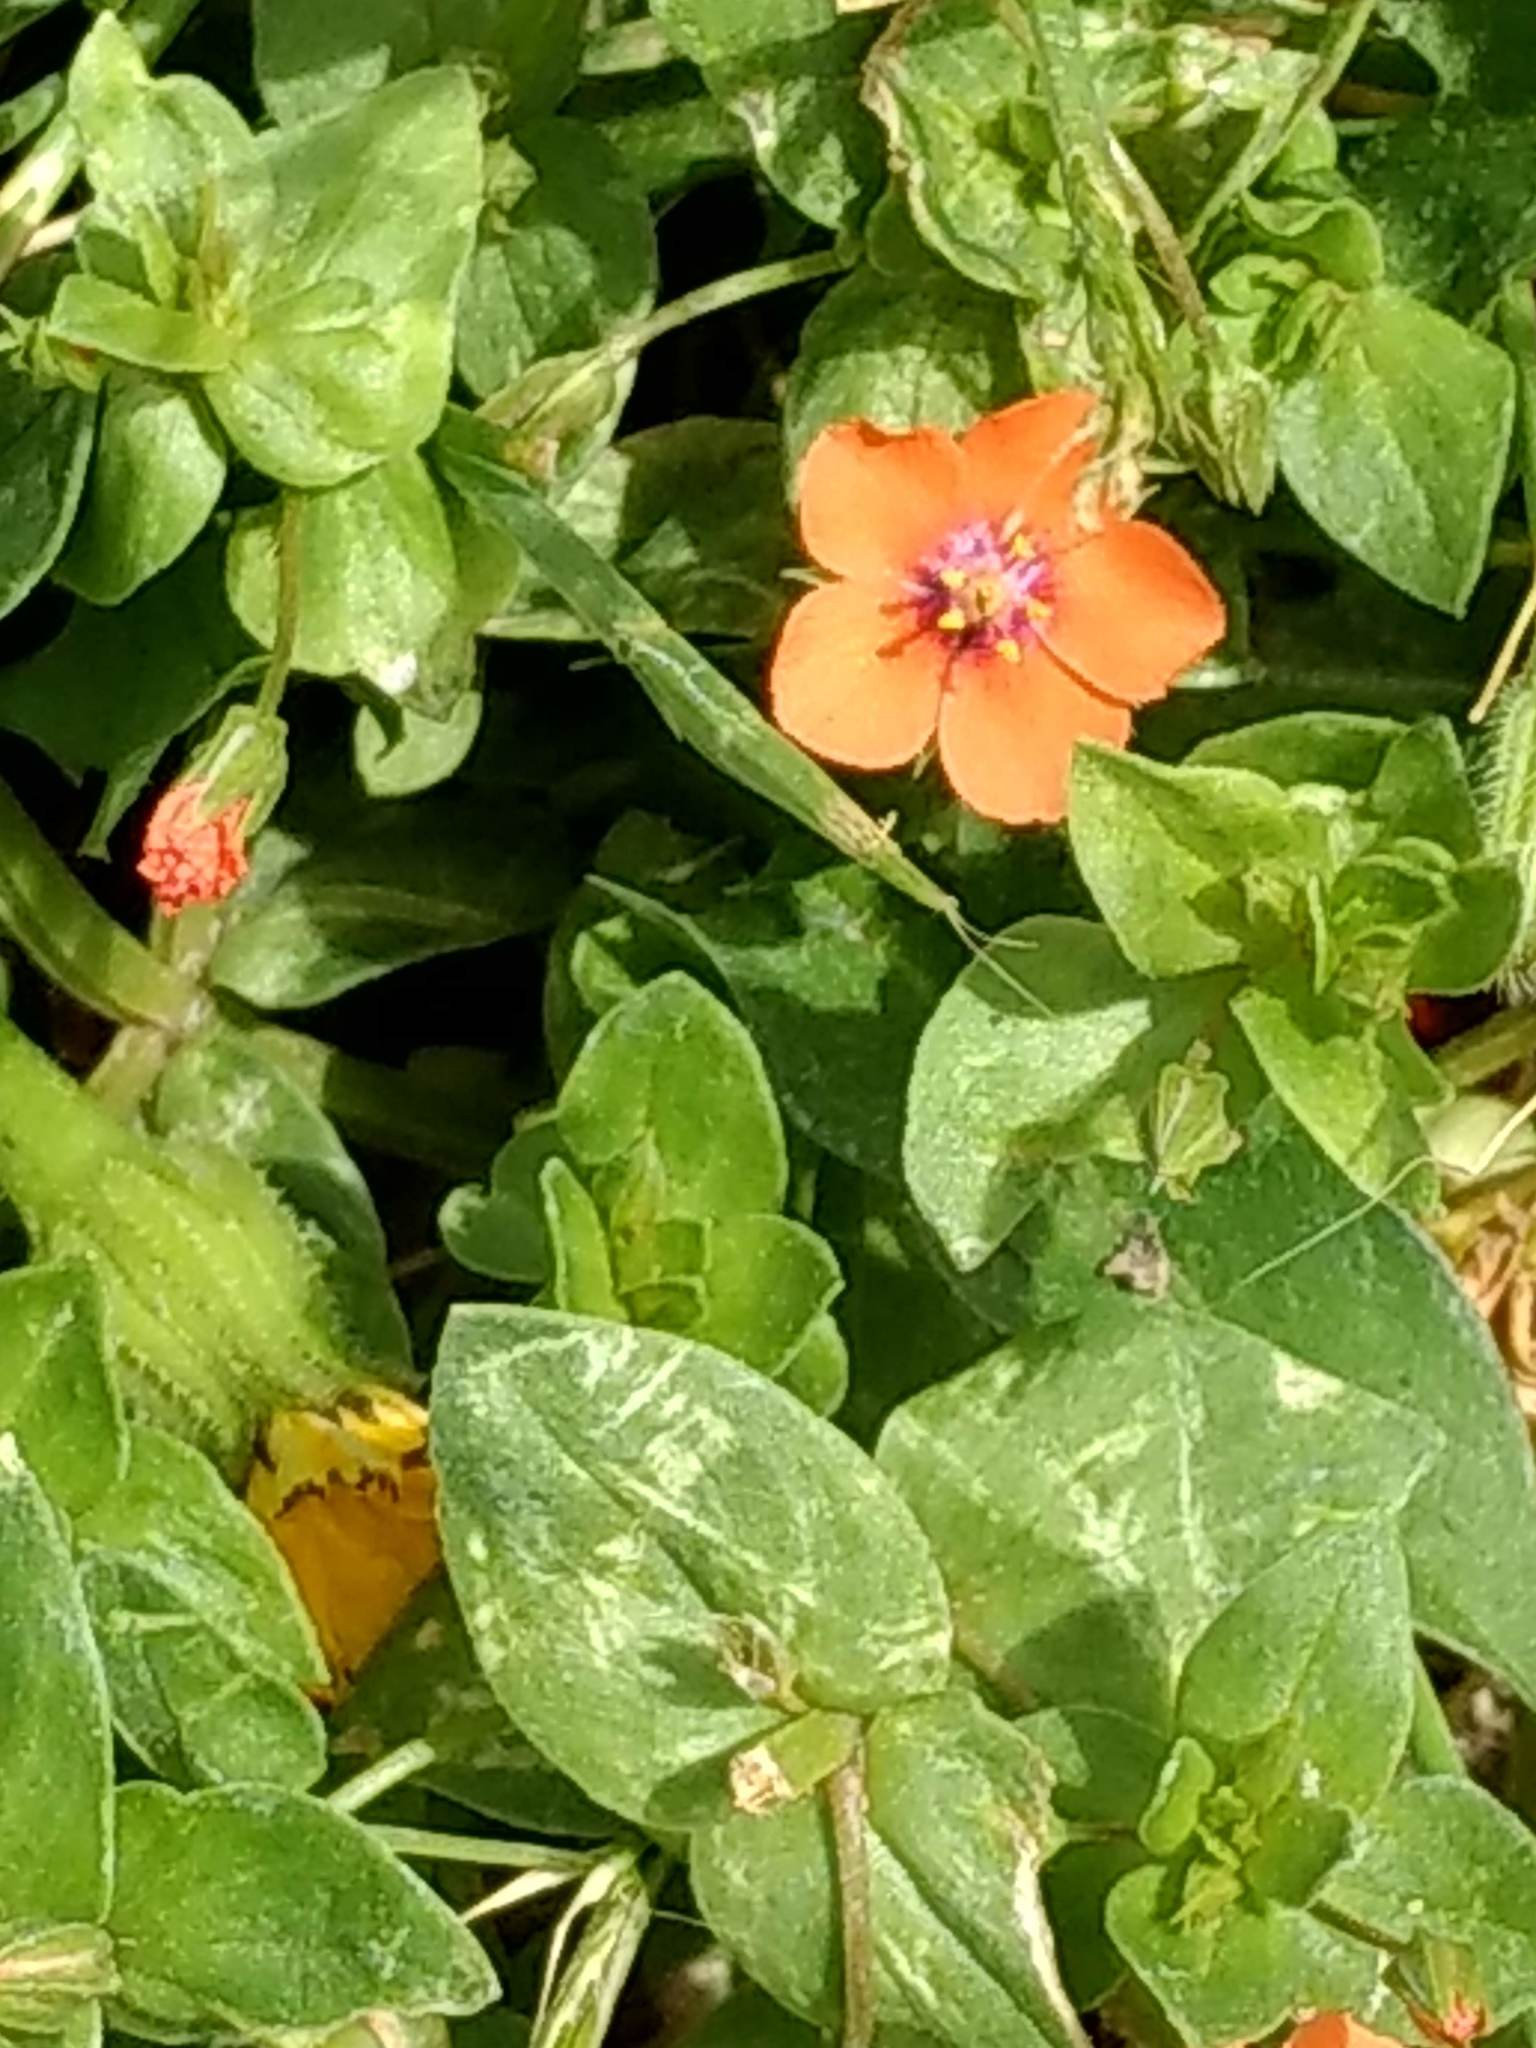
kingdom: Plantae
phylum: Tracheophyta
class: Magnoliopsida
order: Ericales
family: Primulaceae
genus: Lysimachia
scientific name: Lysimachia arvensis
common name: Scarlet pimpernel
